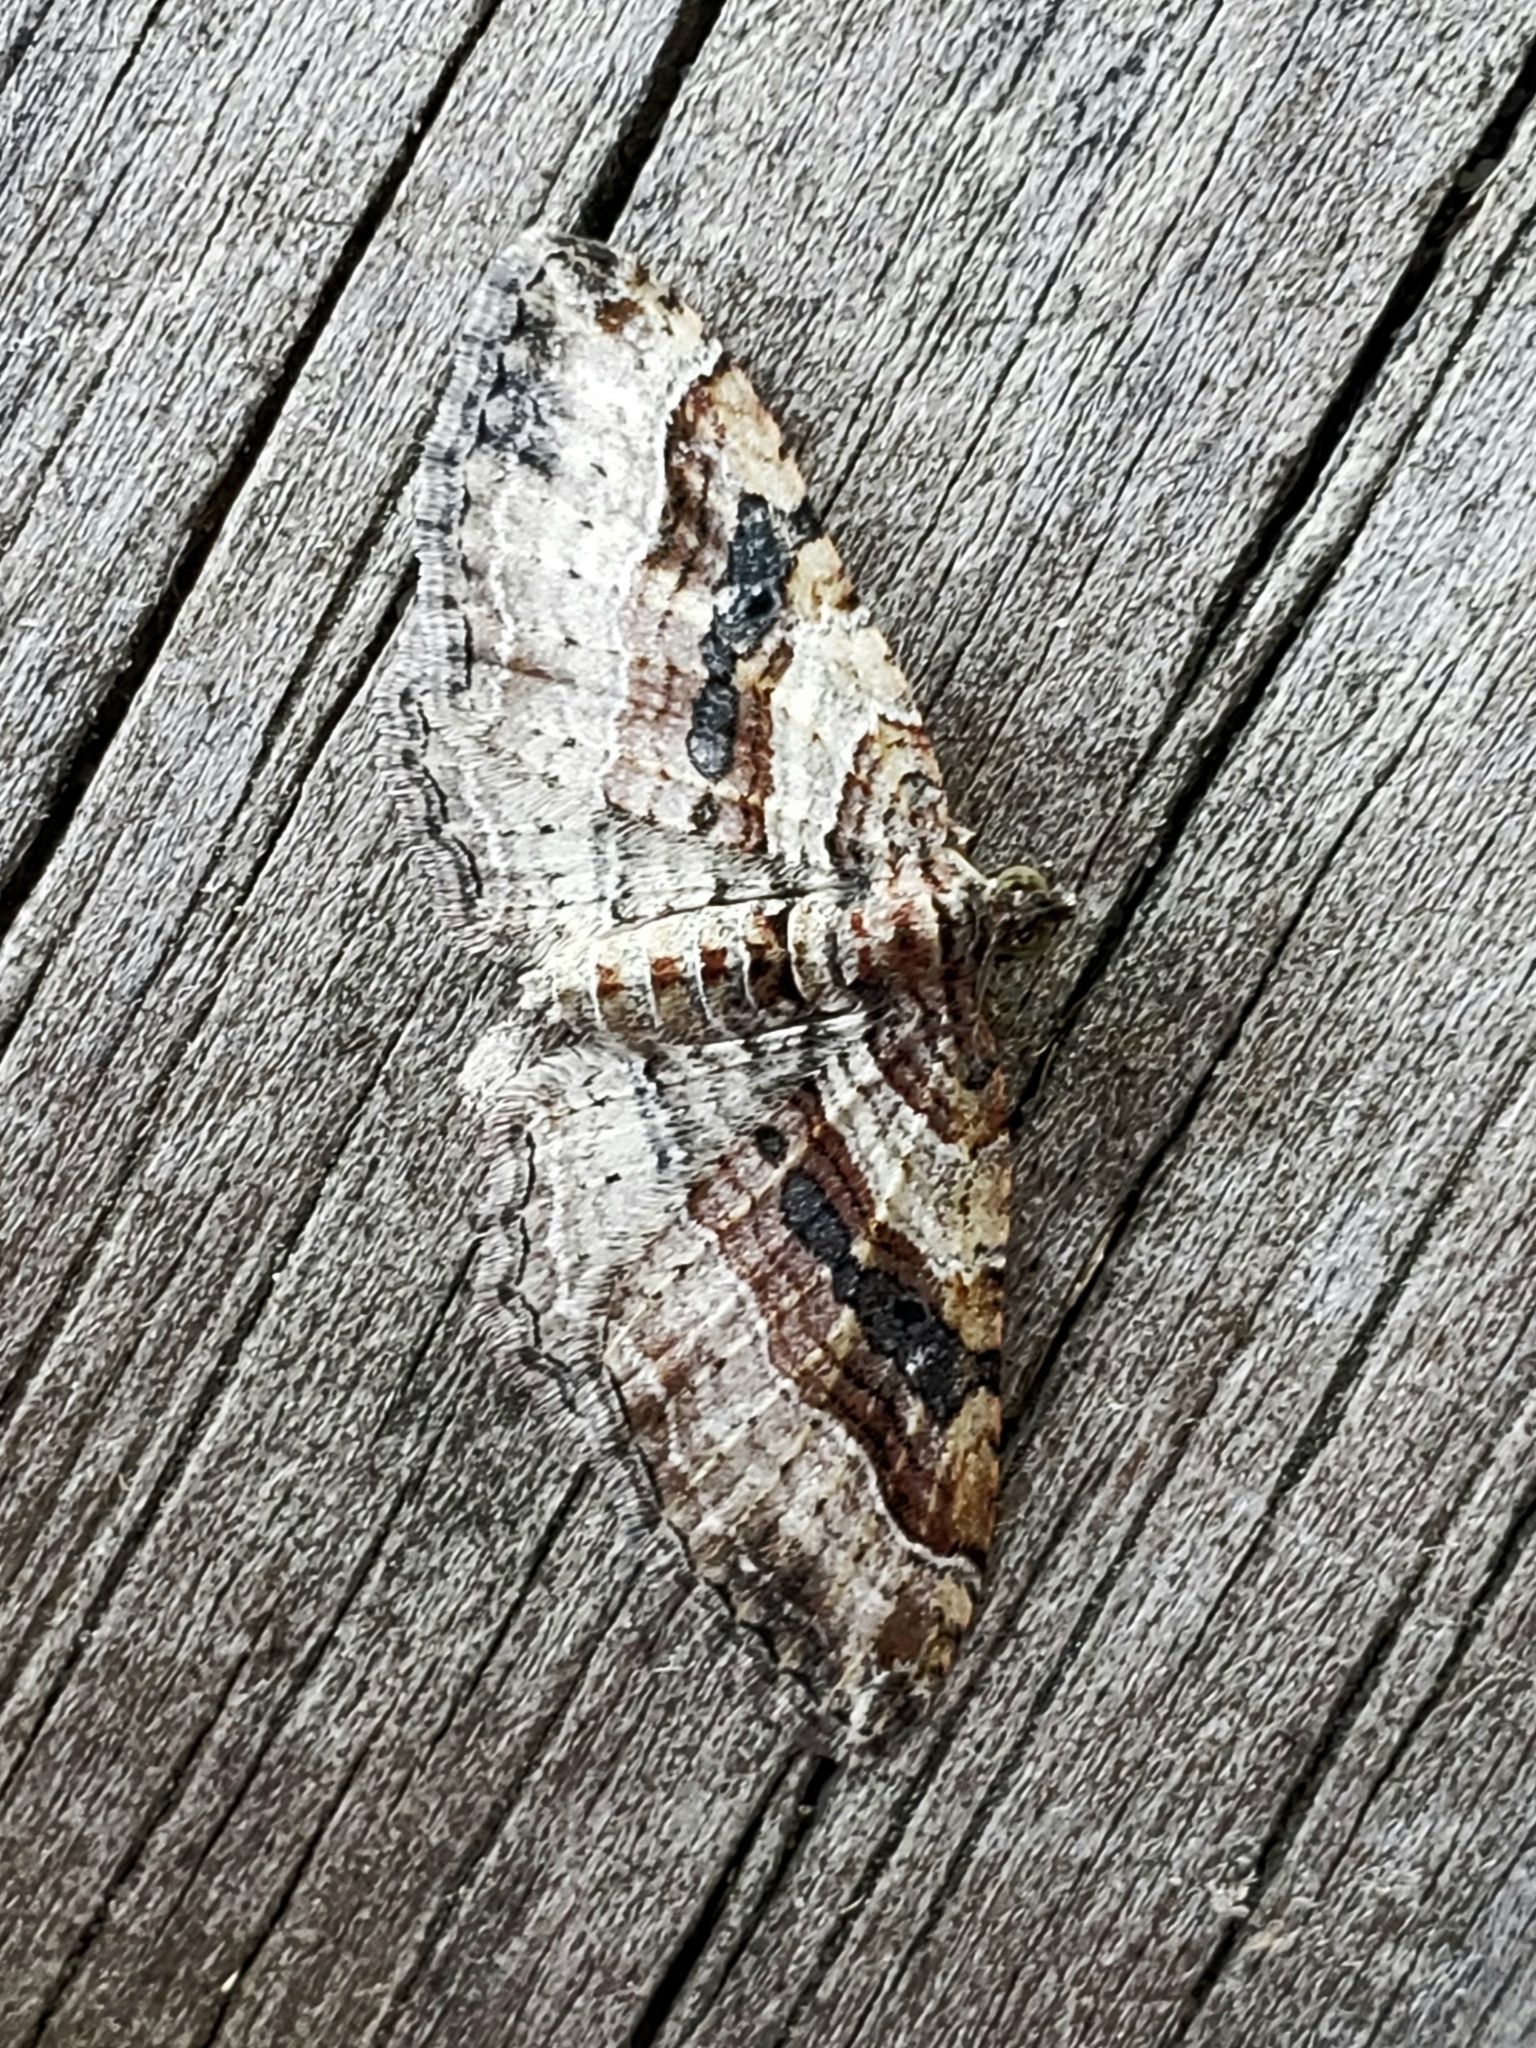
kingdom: Animalia
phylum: Arthropoda
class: Insecta
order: Lepidoptera
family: Geometridae
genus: Costaconvexa
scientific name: Costaconvexa centrostrigaria
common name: Bent-line carpet
